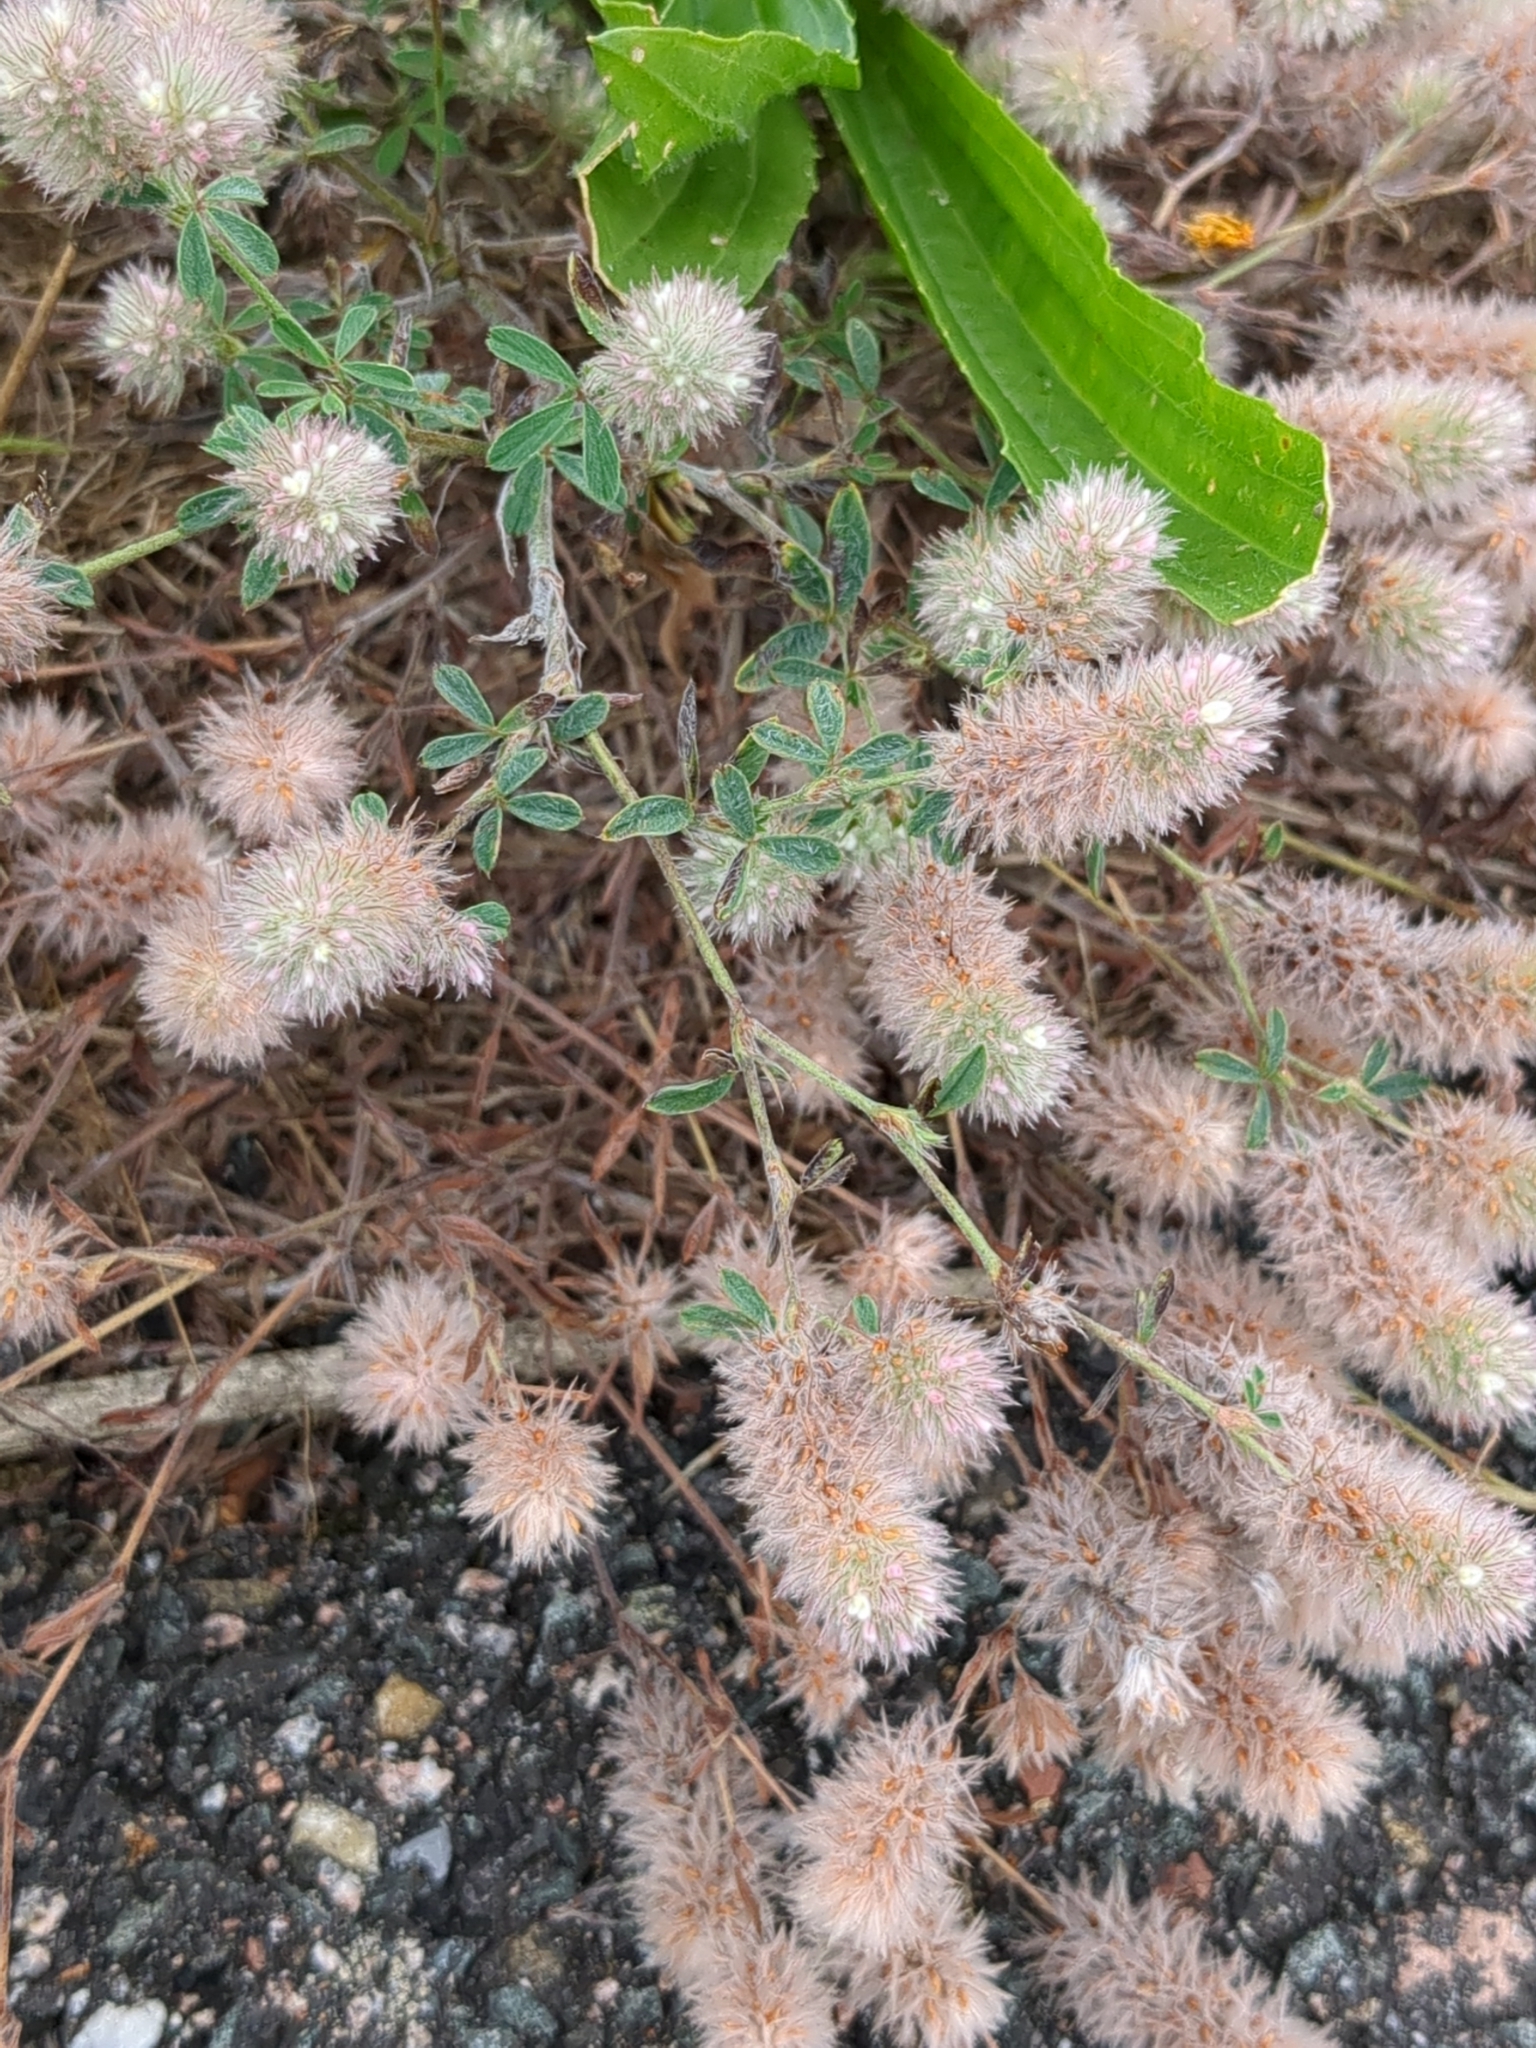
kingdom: Plantae
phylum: Tracheophyta
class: Magnoliopsida
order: Fabales
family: Fabaceae
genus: Trifolium
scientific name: Trifolium arvense
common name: Hare's-foot clover
